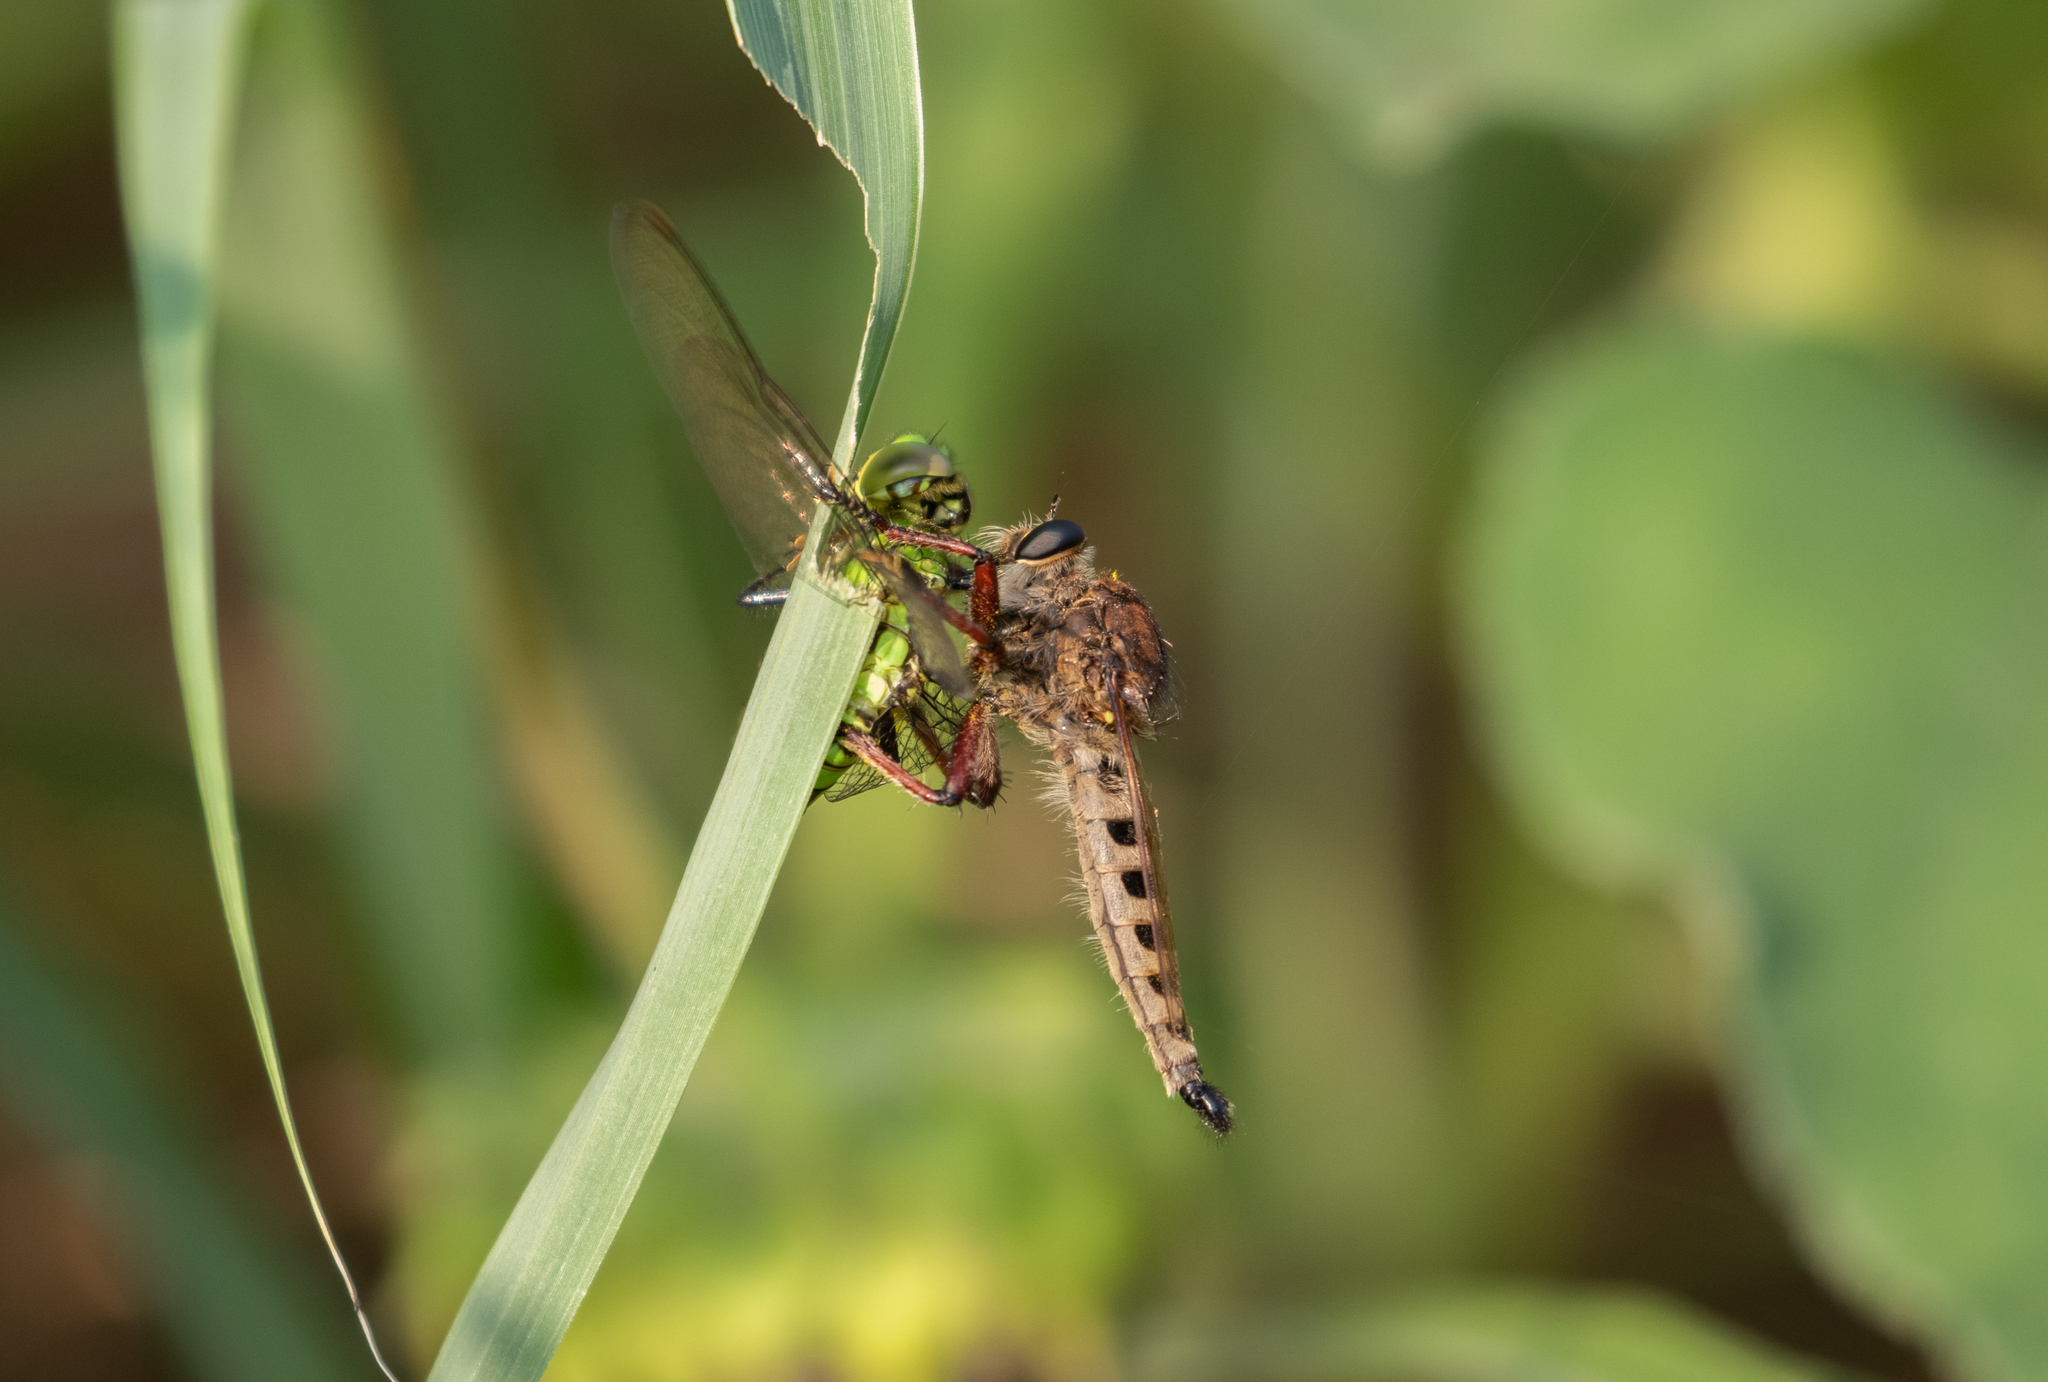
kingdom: Animalia
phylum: Arthropoda
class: Insecta
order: Diptera
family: Asilidae
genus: Promachus
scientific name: Promachus hinei
